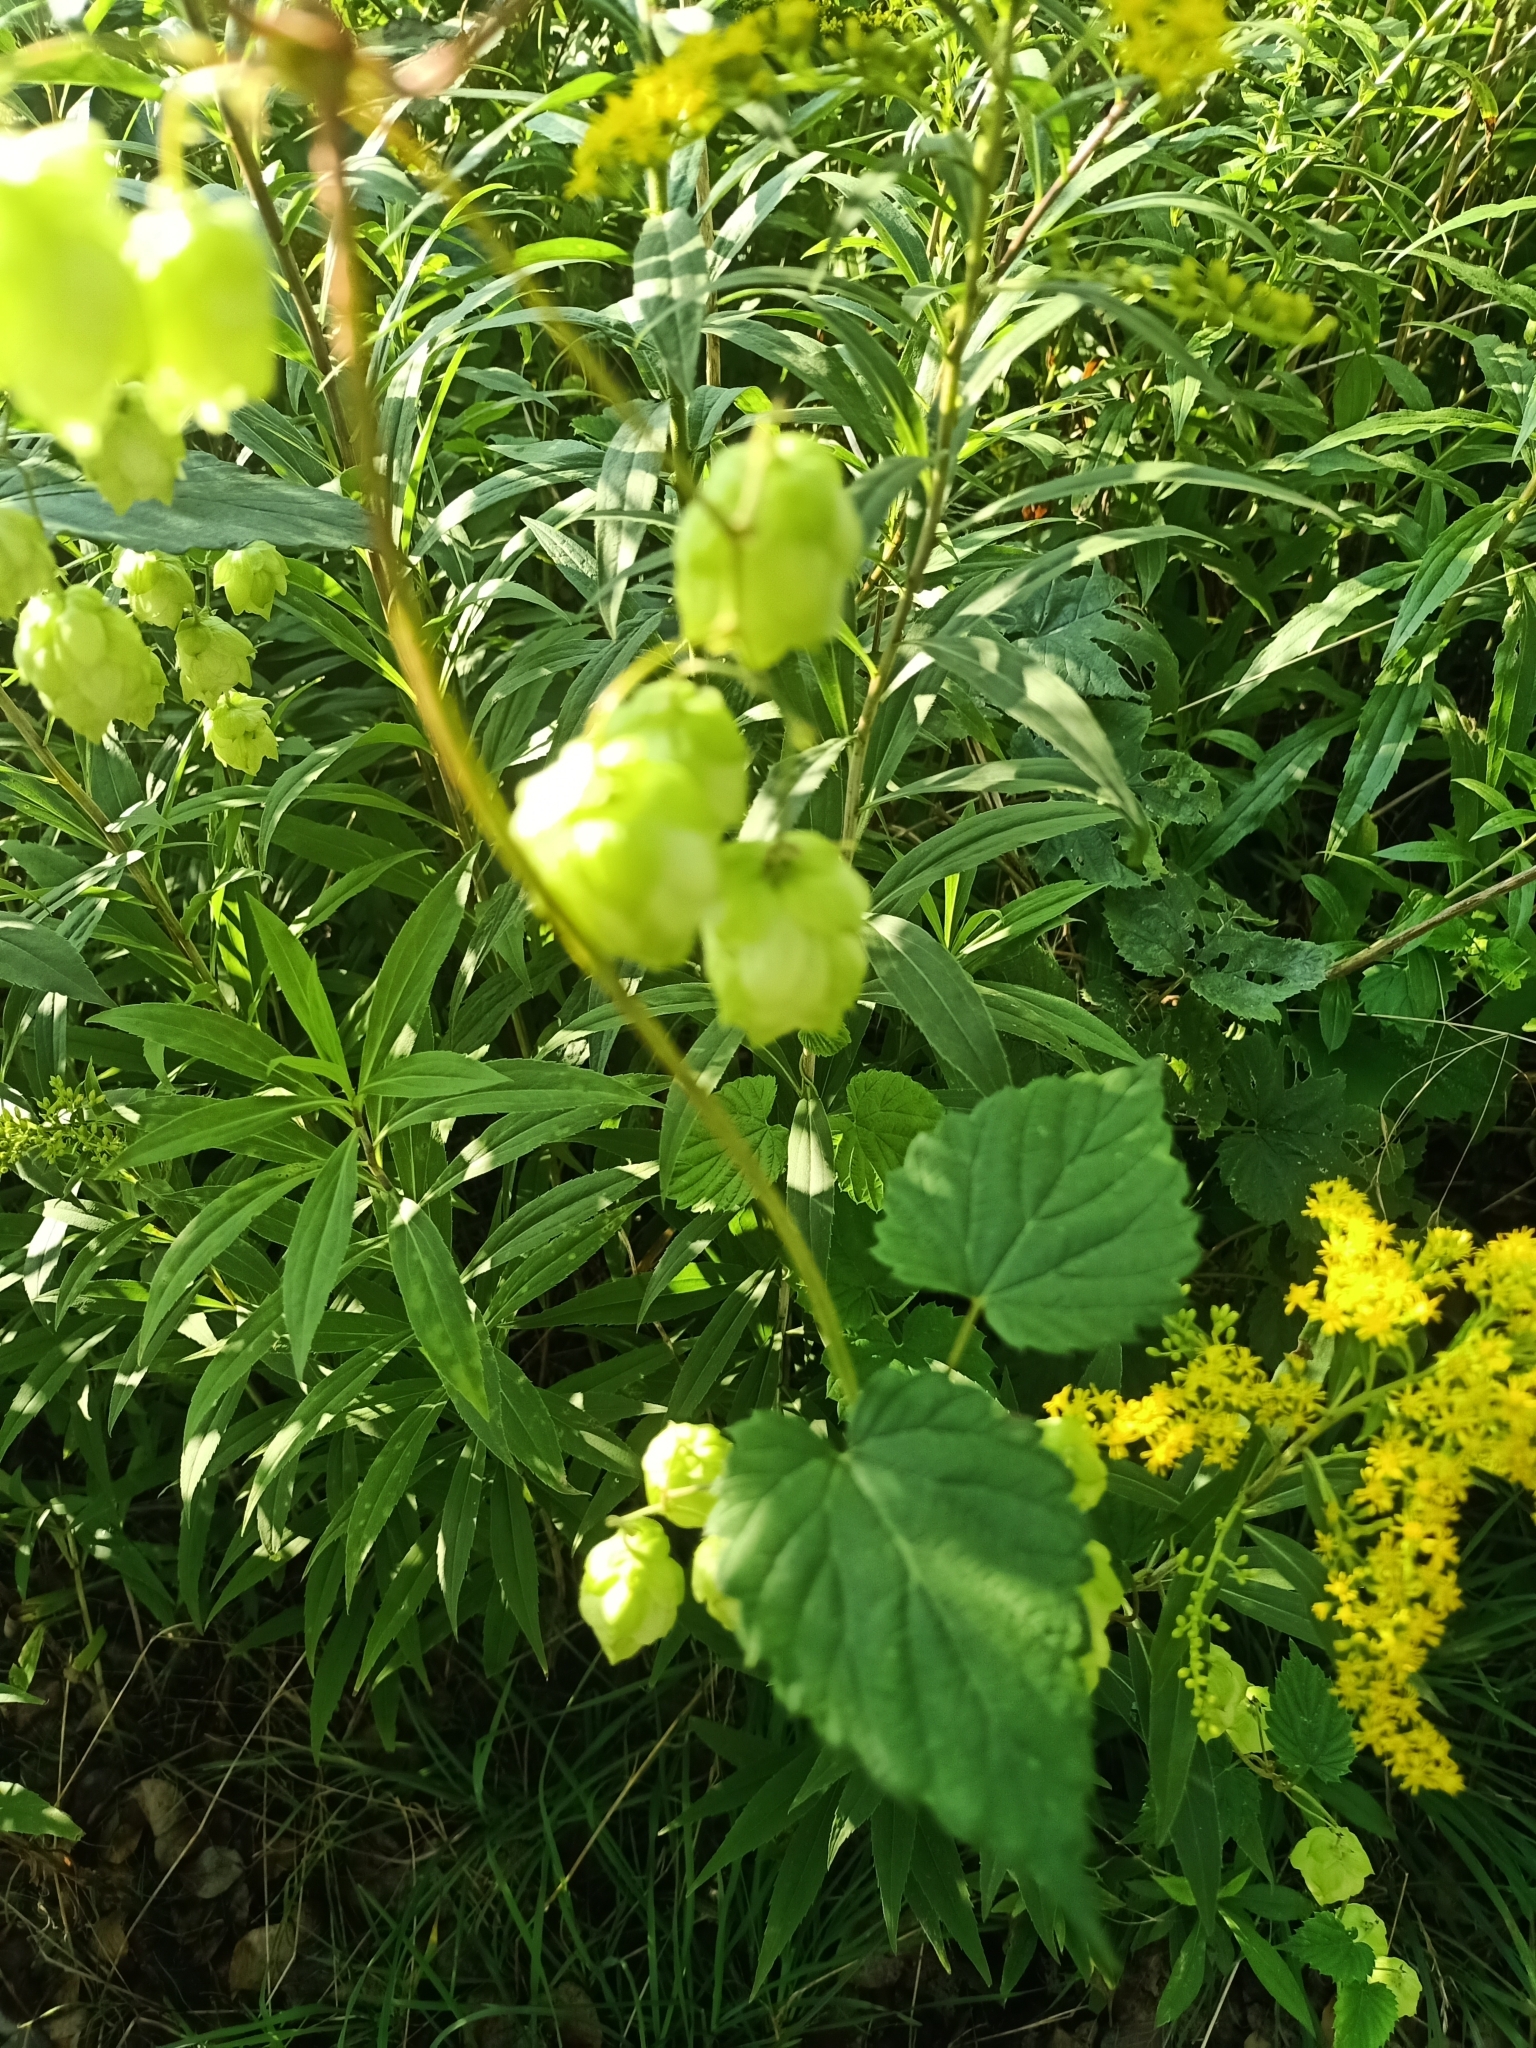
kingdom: Plantae
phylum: Tracheophyta
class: Magnoliopsida
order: Rosales
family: Cannabaceae
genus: Humulus
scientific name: Humulus lupulus
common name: Hop
